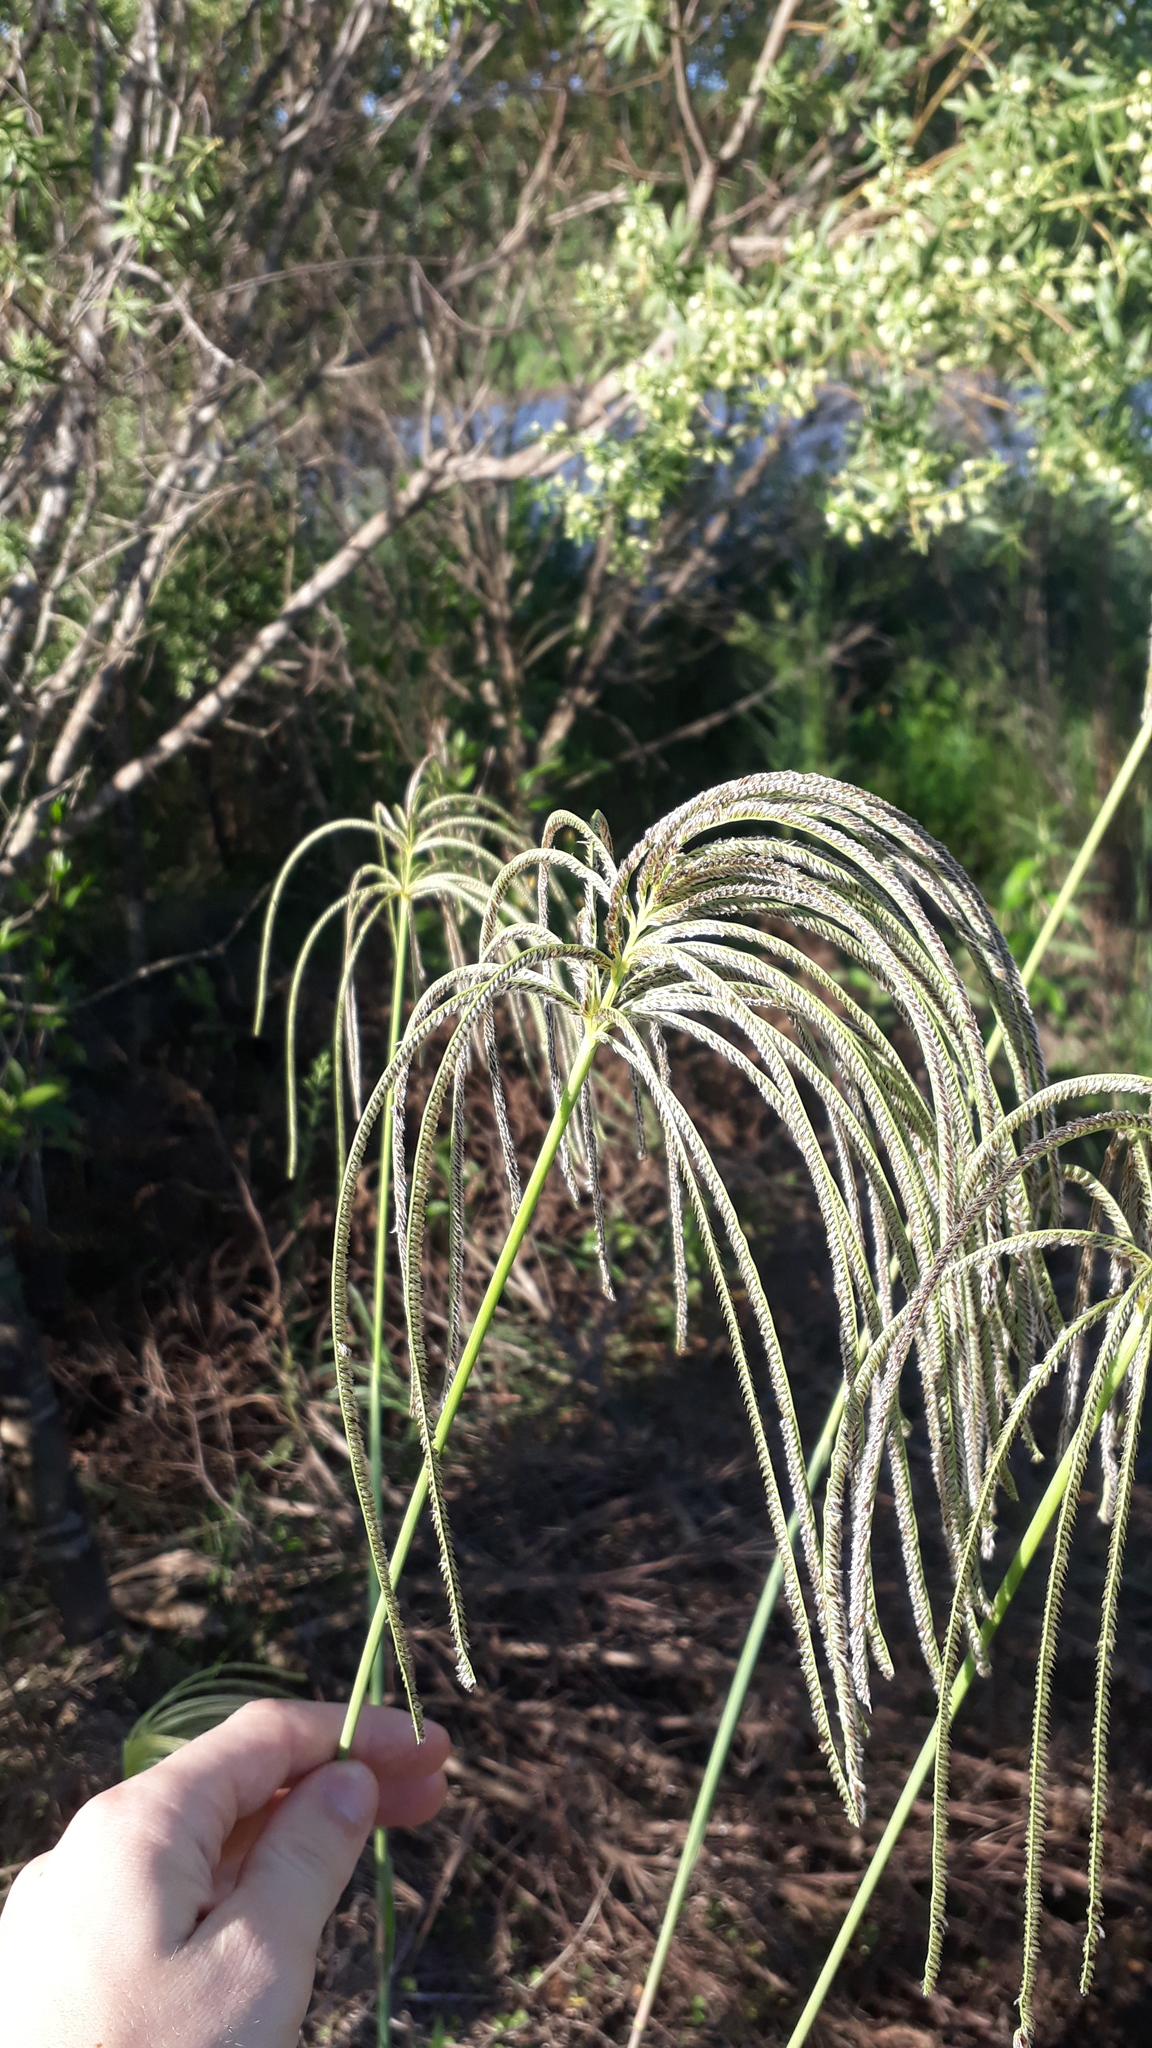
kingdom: Plantae
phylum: Tracheophyta
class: Liliopsida
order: Poales
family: Poaceae
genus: Eustachys
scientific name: Eustachys distichophylla
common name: Weeping fingergrass
